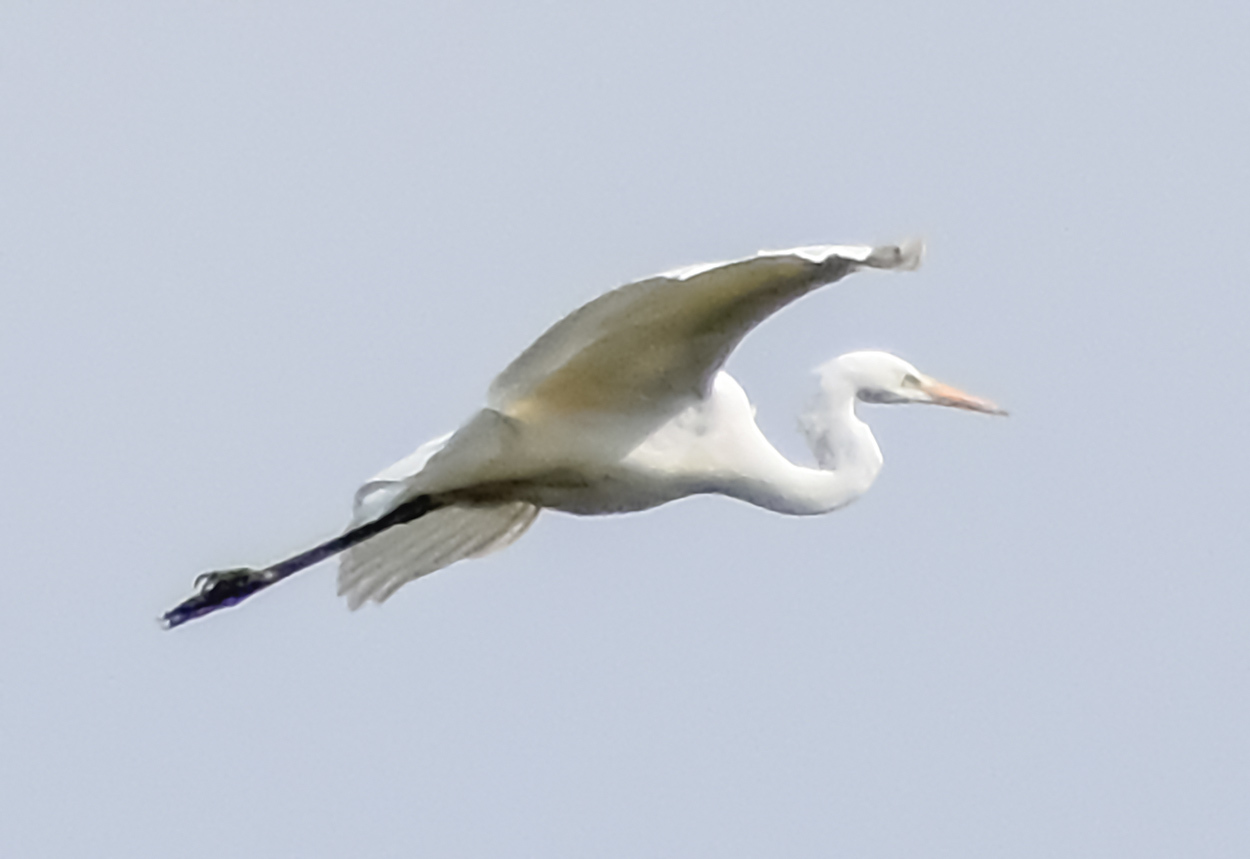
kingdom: Animalia
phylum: Chordata
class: Aves
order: Pelecaniformes
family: Ardeidae
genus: Ardea
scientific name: Ardea alba
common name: Great egret
